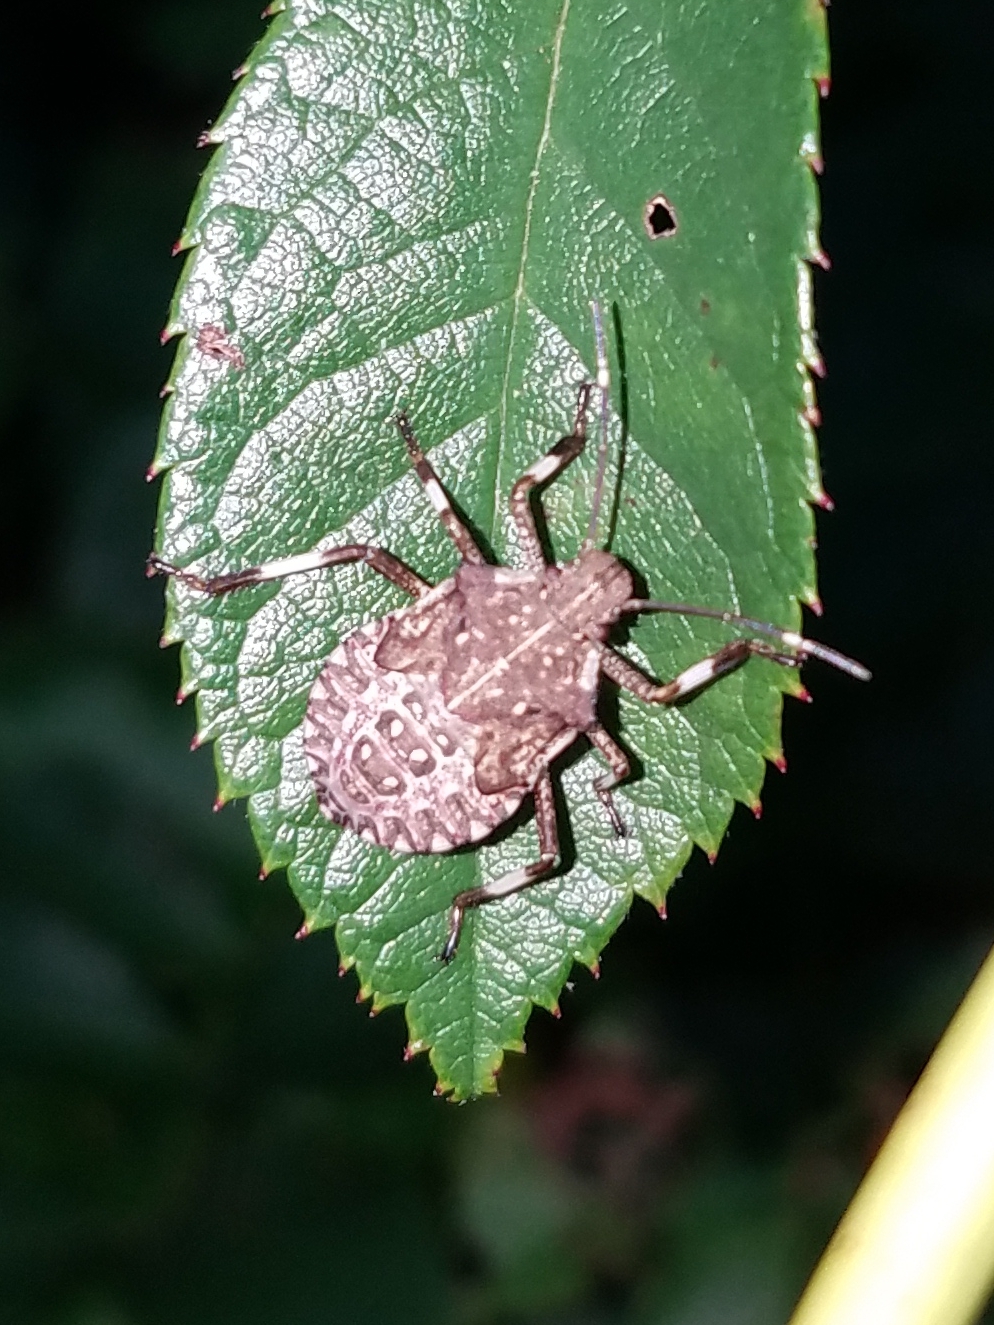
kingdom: Animalia
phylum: Arthropoda
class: Insecta
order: Hemiptera
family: Pentatomidae
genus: Halyomorpha
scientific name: Halyomorpha halys
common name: Brown marmorated stink bug
